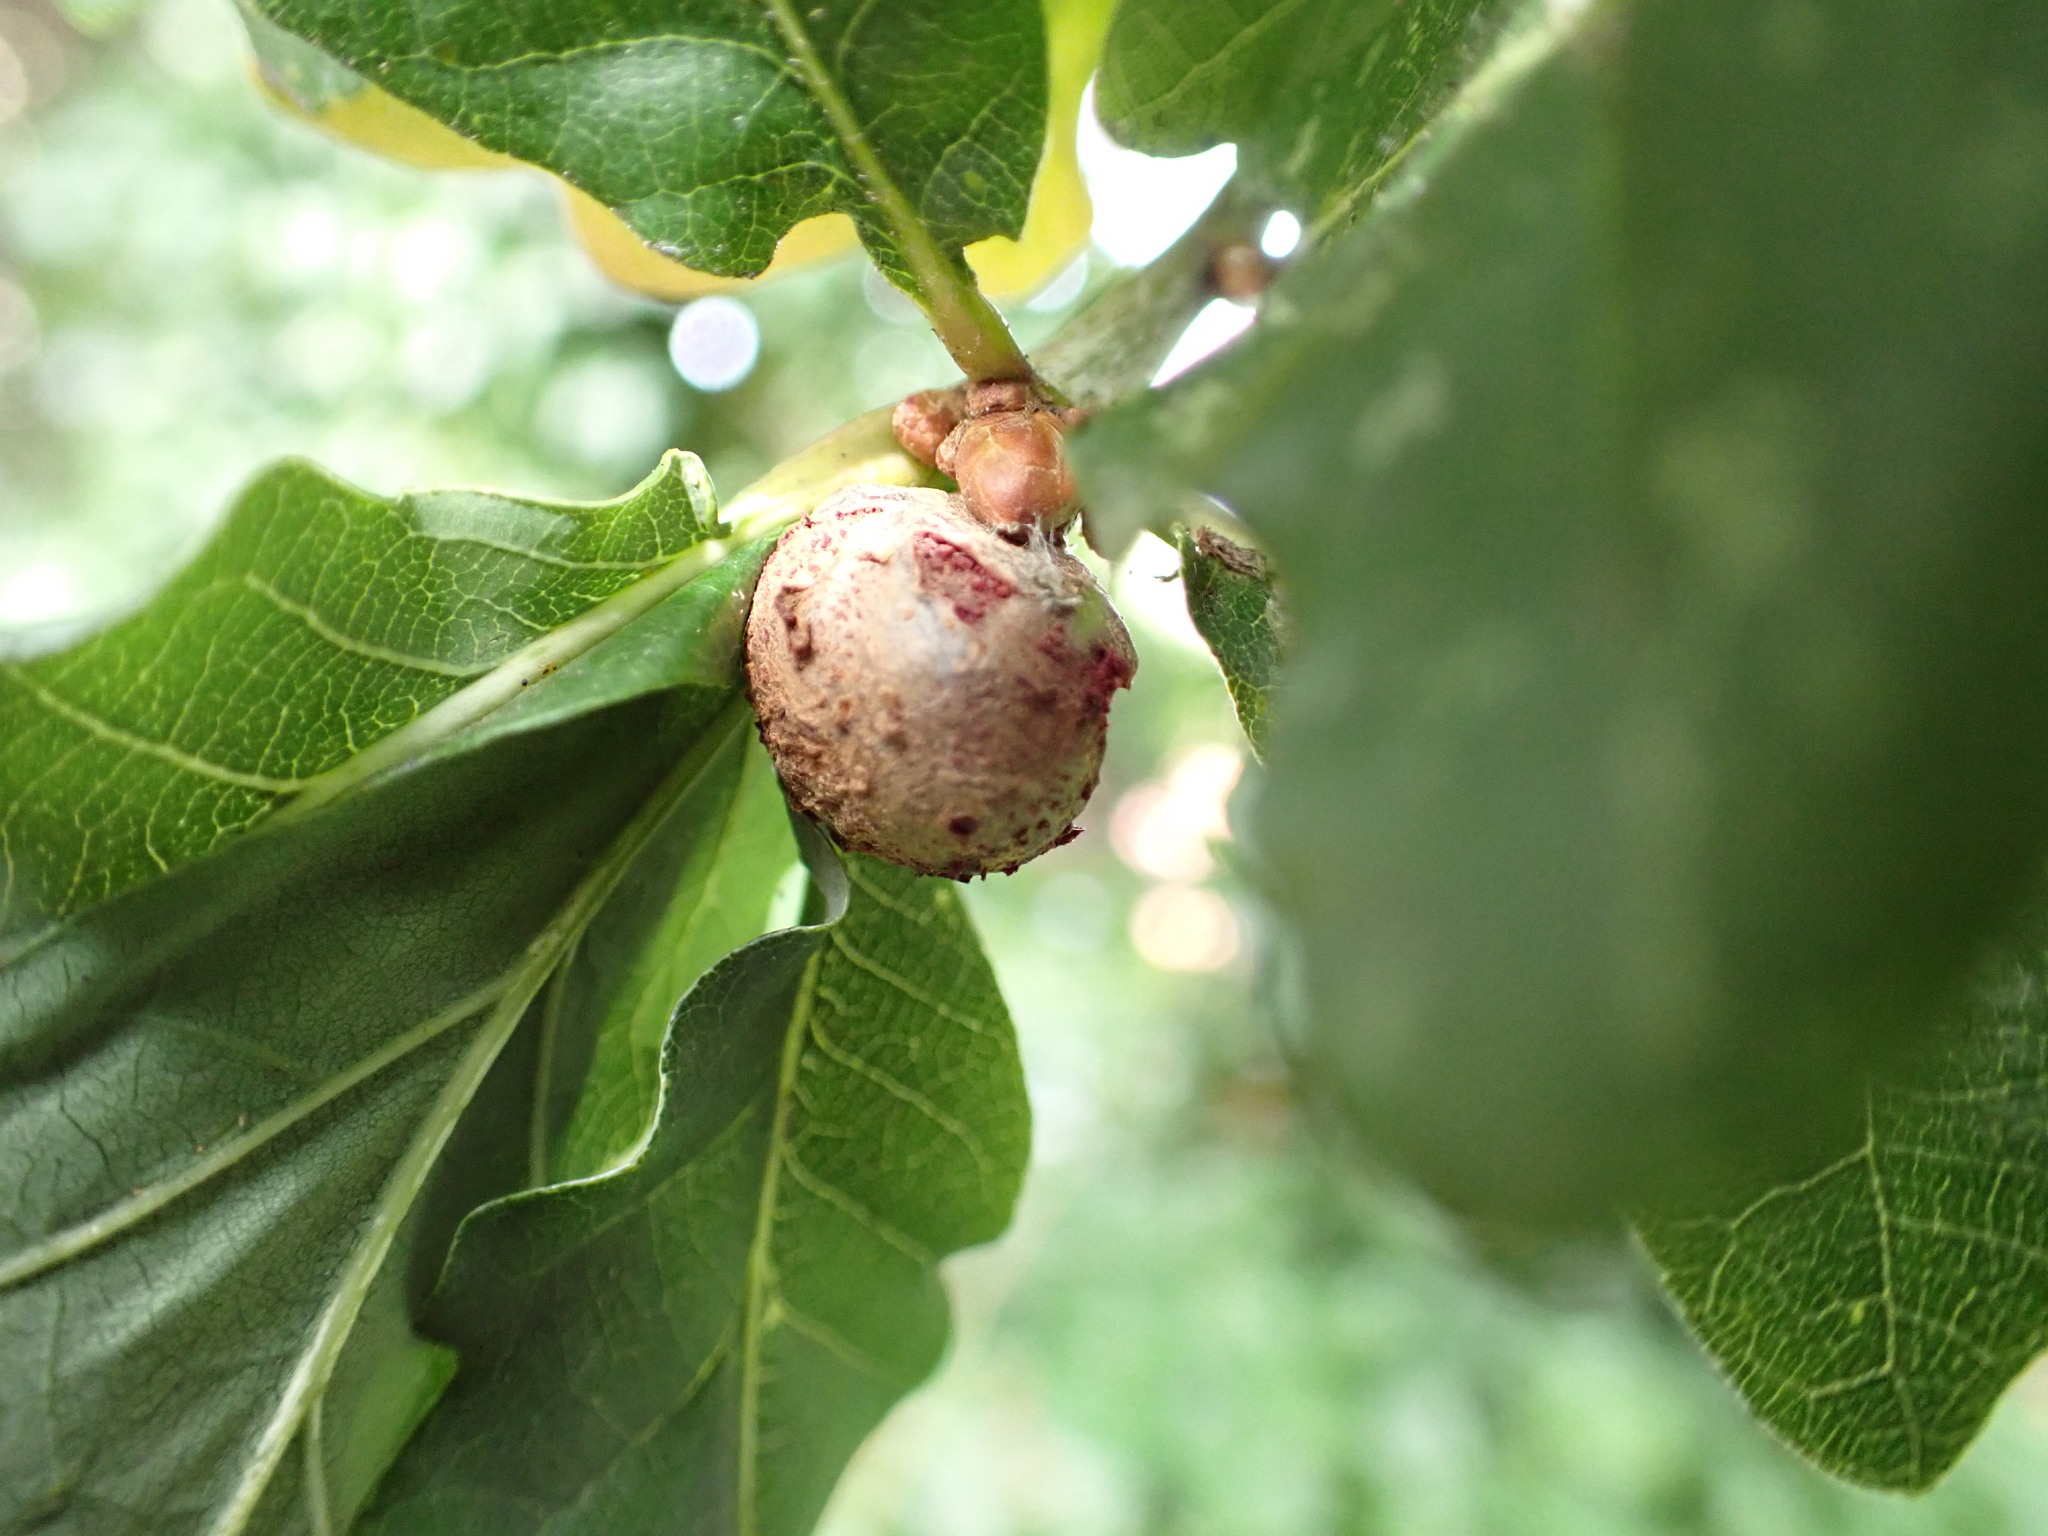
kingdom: Animalia
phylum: Arthropoda
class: Insecta
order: Hymenoptera
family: Cynipidae
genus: Andricus
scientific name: Andricus lignicolus
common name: Cola-nut gall
